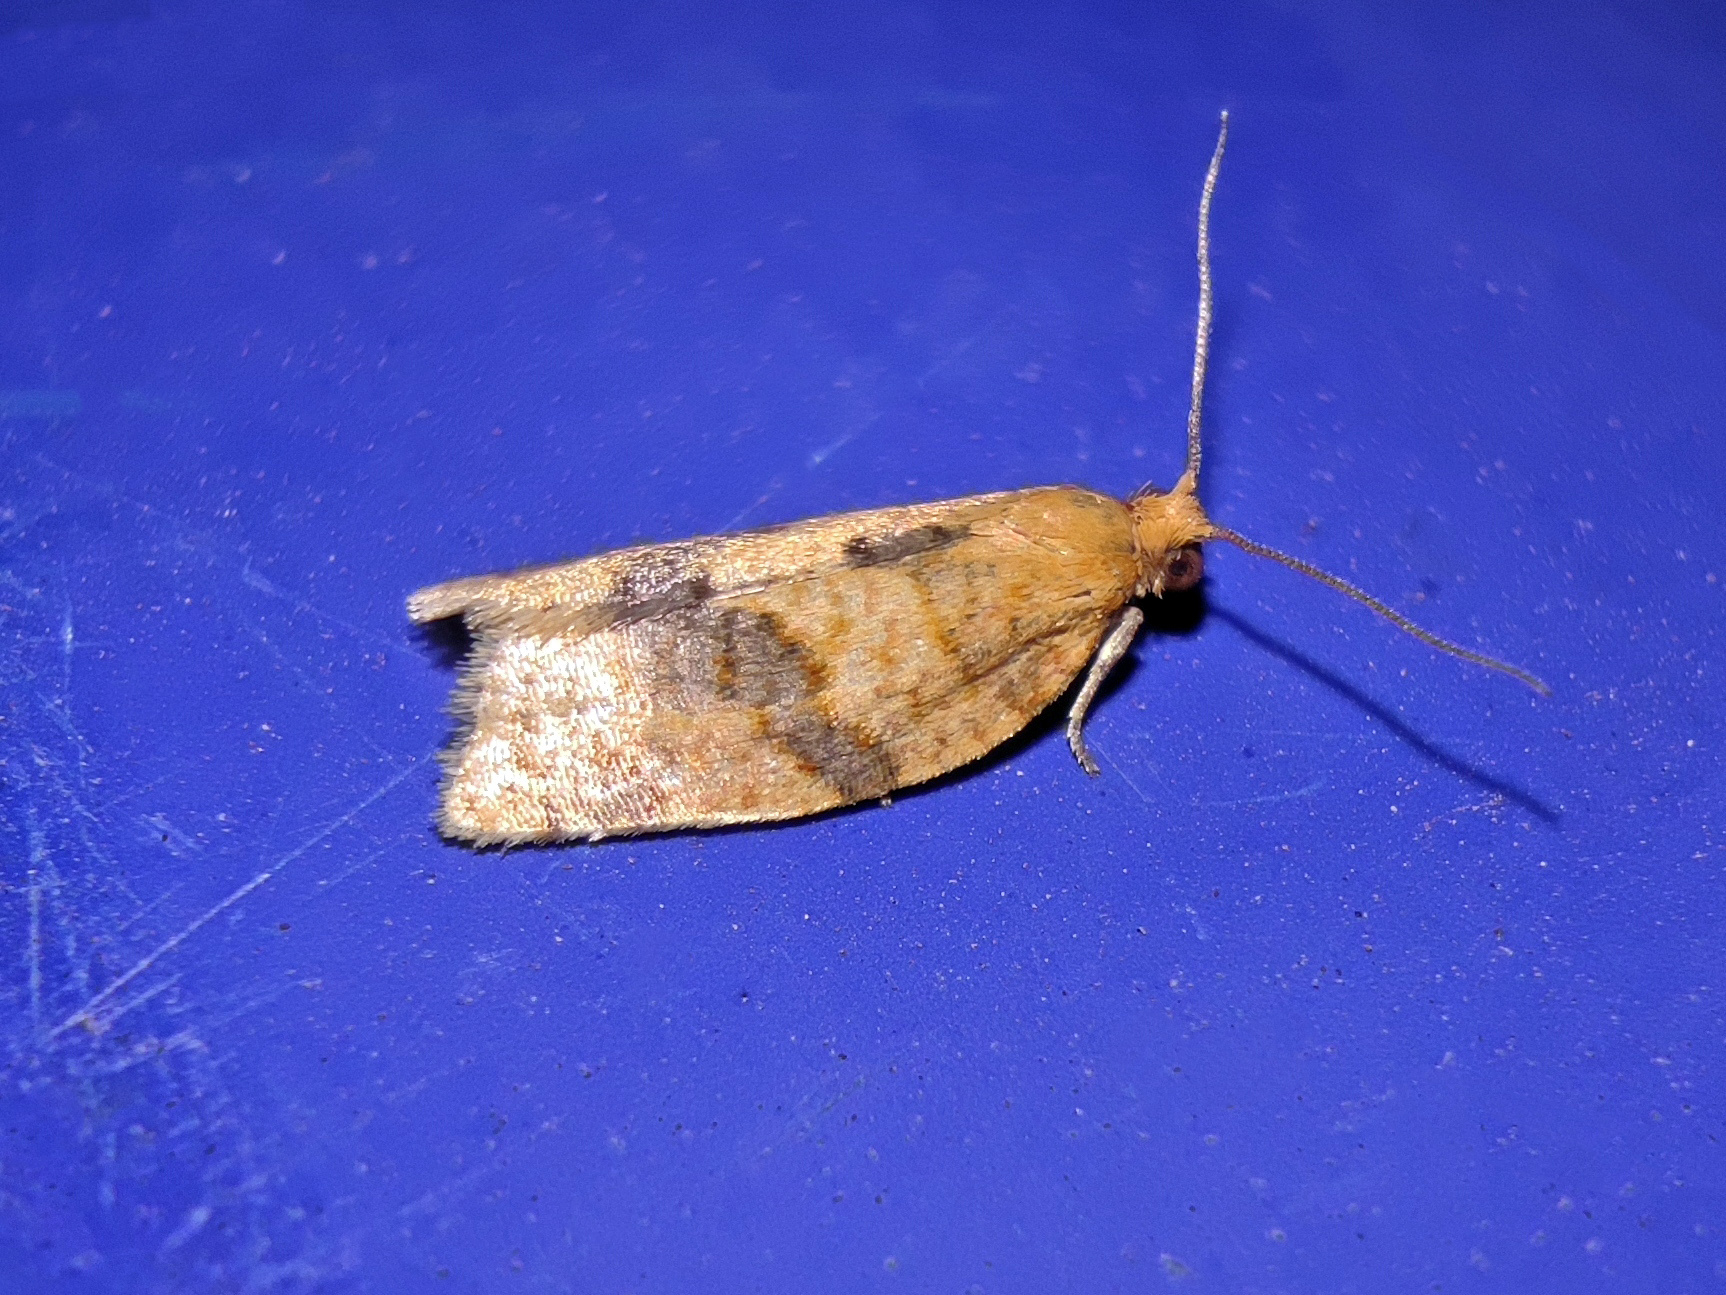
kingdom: Animalia
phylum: Arthropoda
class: Insecta
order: Lepidoptera
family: Tortricidae
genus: Clepsis
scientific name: Clepsis neglectana
